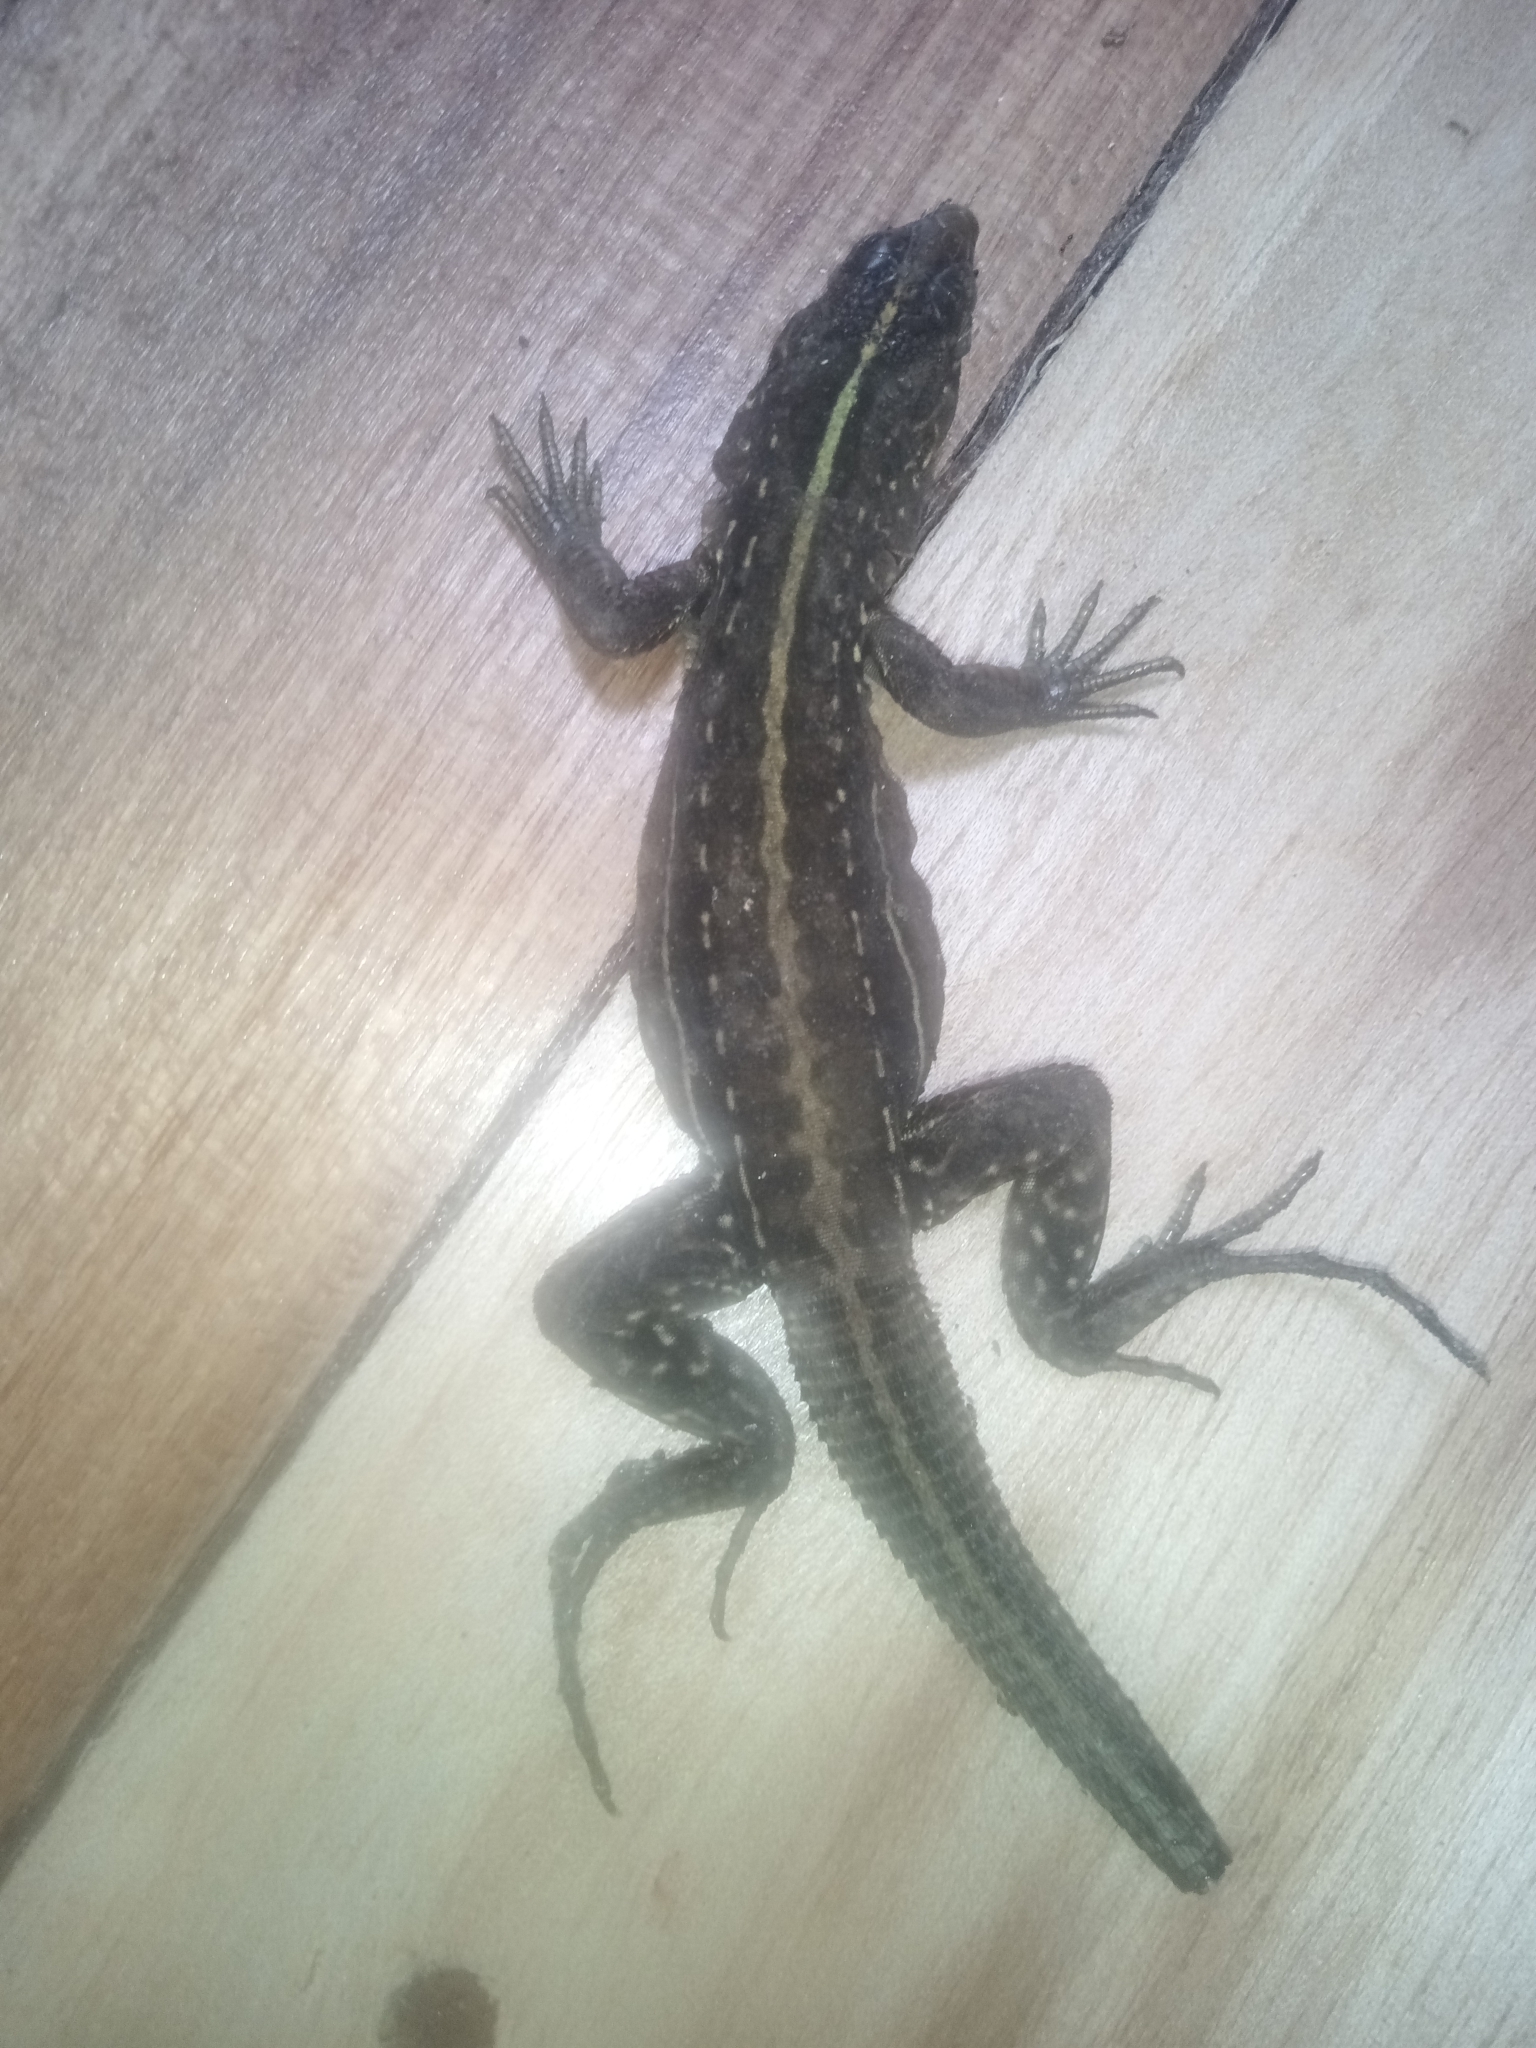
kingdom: Animalia
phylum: Chordata
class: Squamata
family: Teiidae
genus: Holcosus
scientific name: Holcosus festivus
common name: Middle american ameiva
